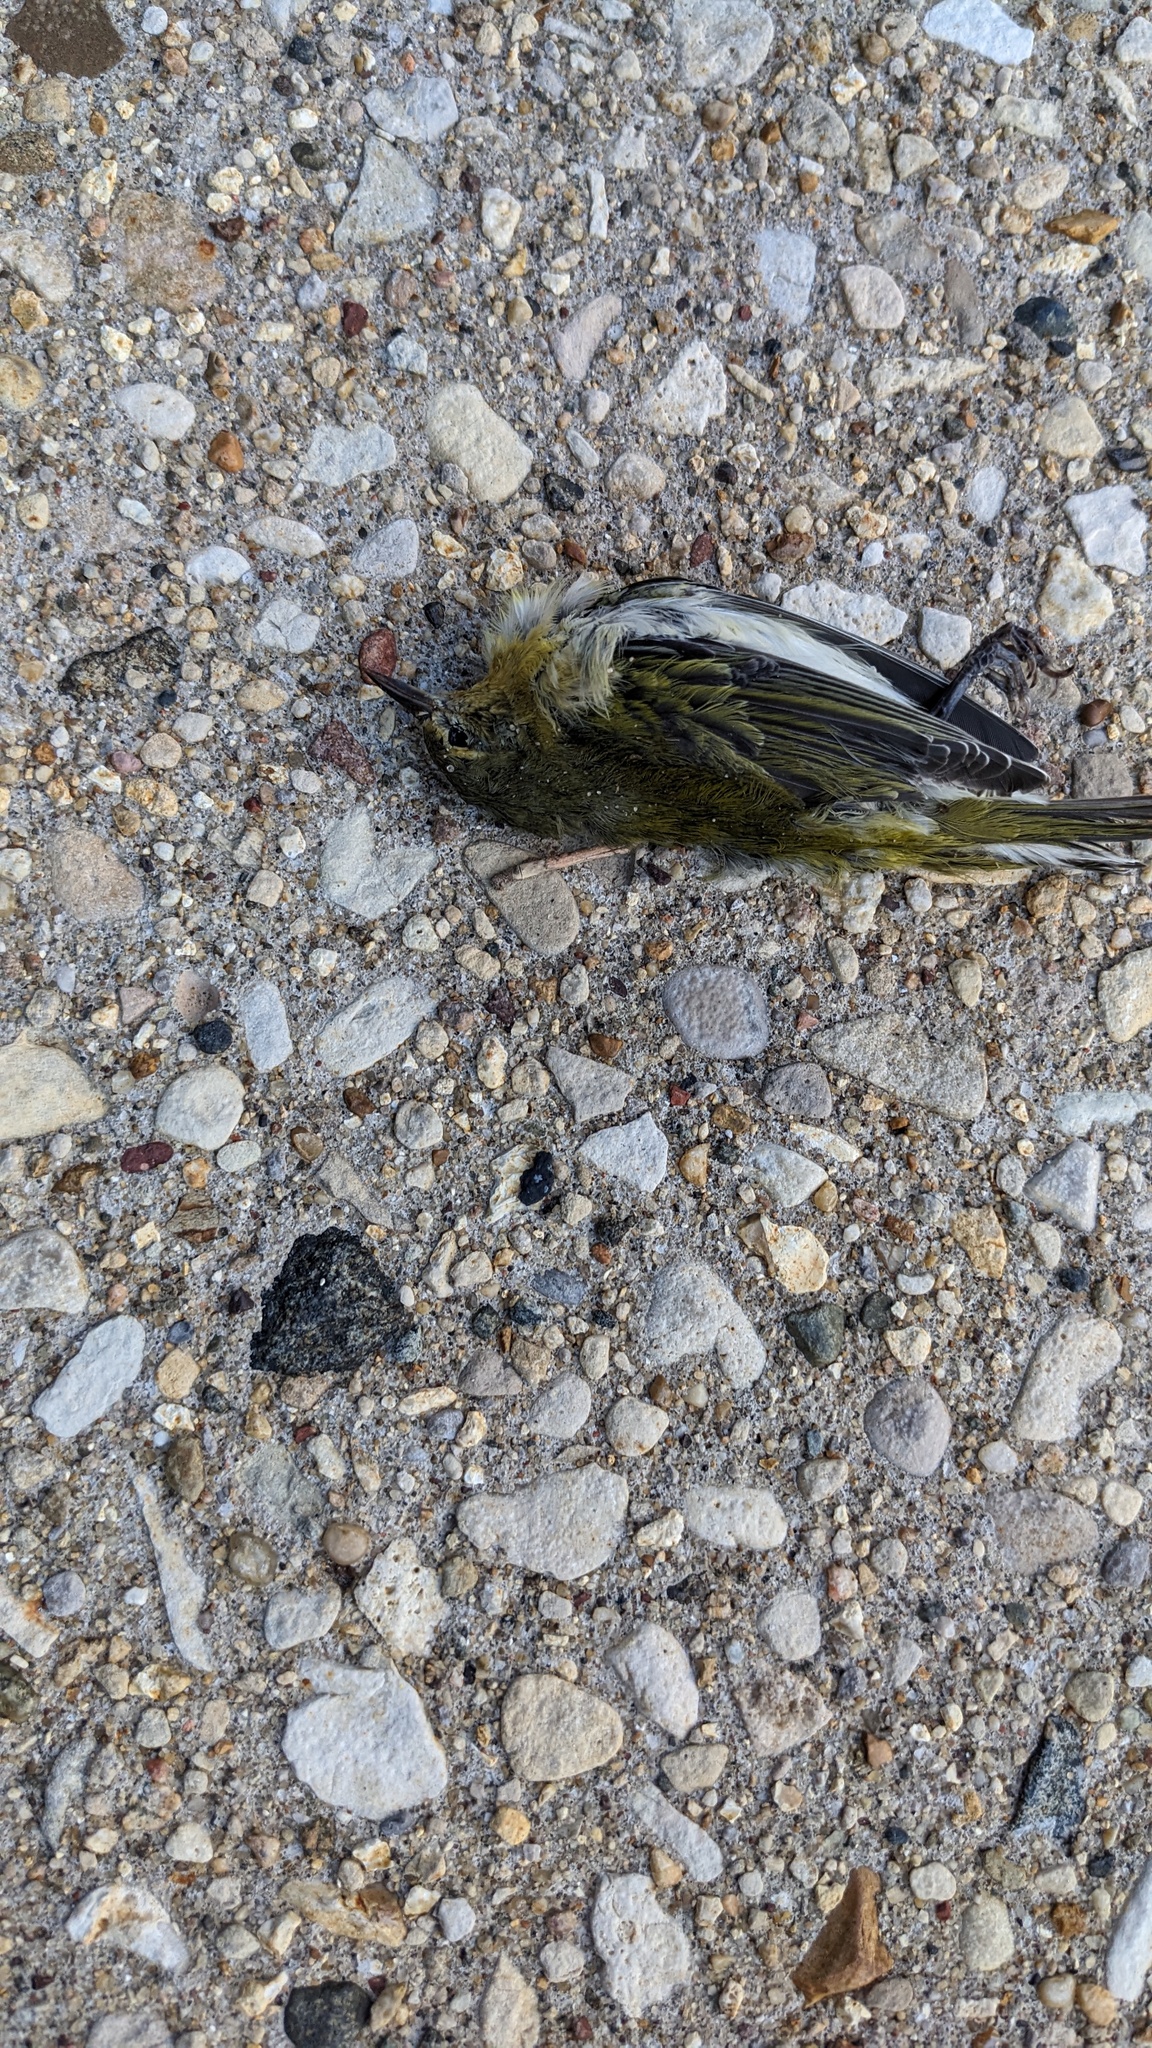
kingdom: Animalia
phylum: Chordata
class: Aves
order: Passeriformes
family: Parulidae
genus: Leiothlypis
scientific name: Leiothlypis peregrina
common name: Tennessee warbler
